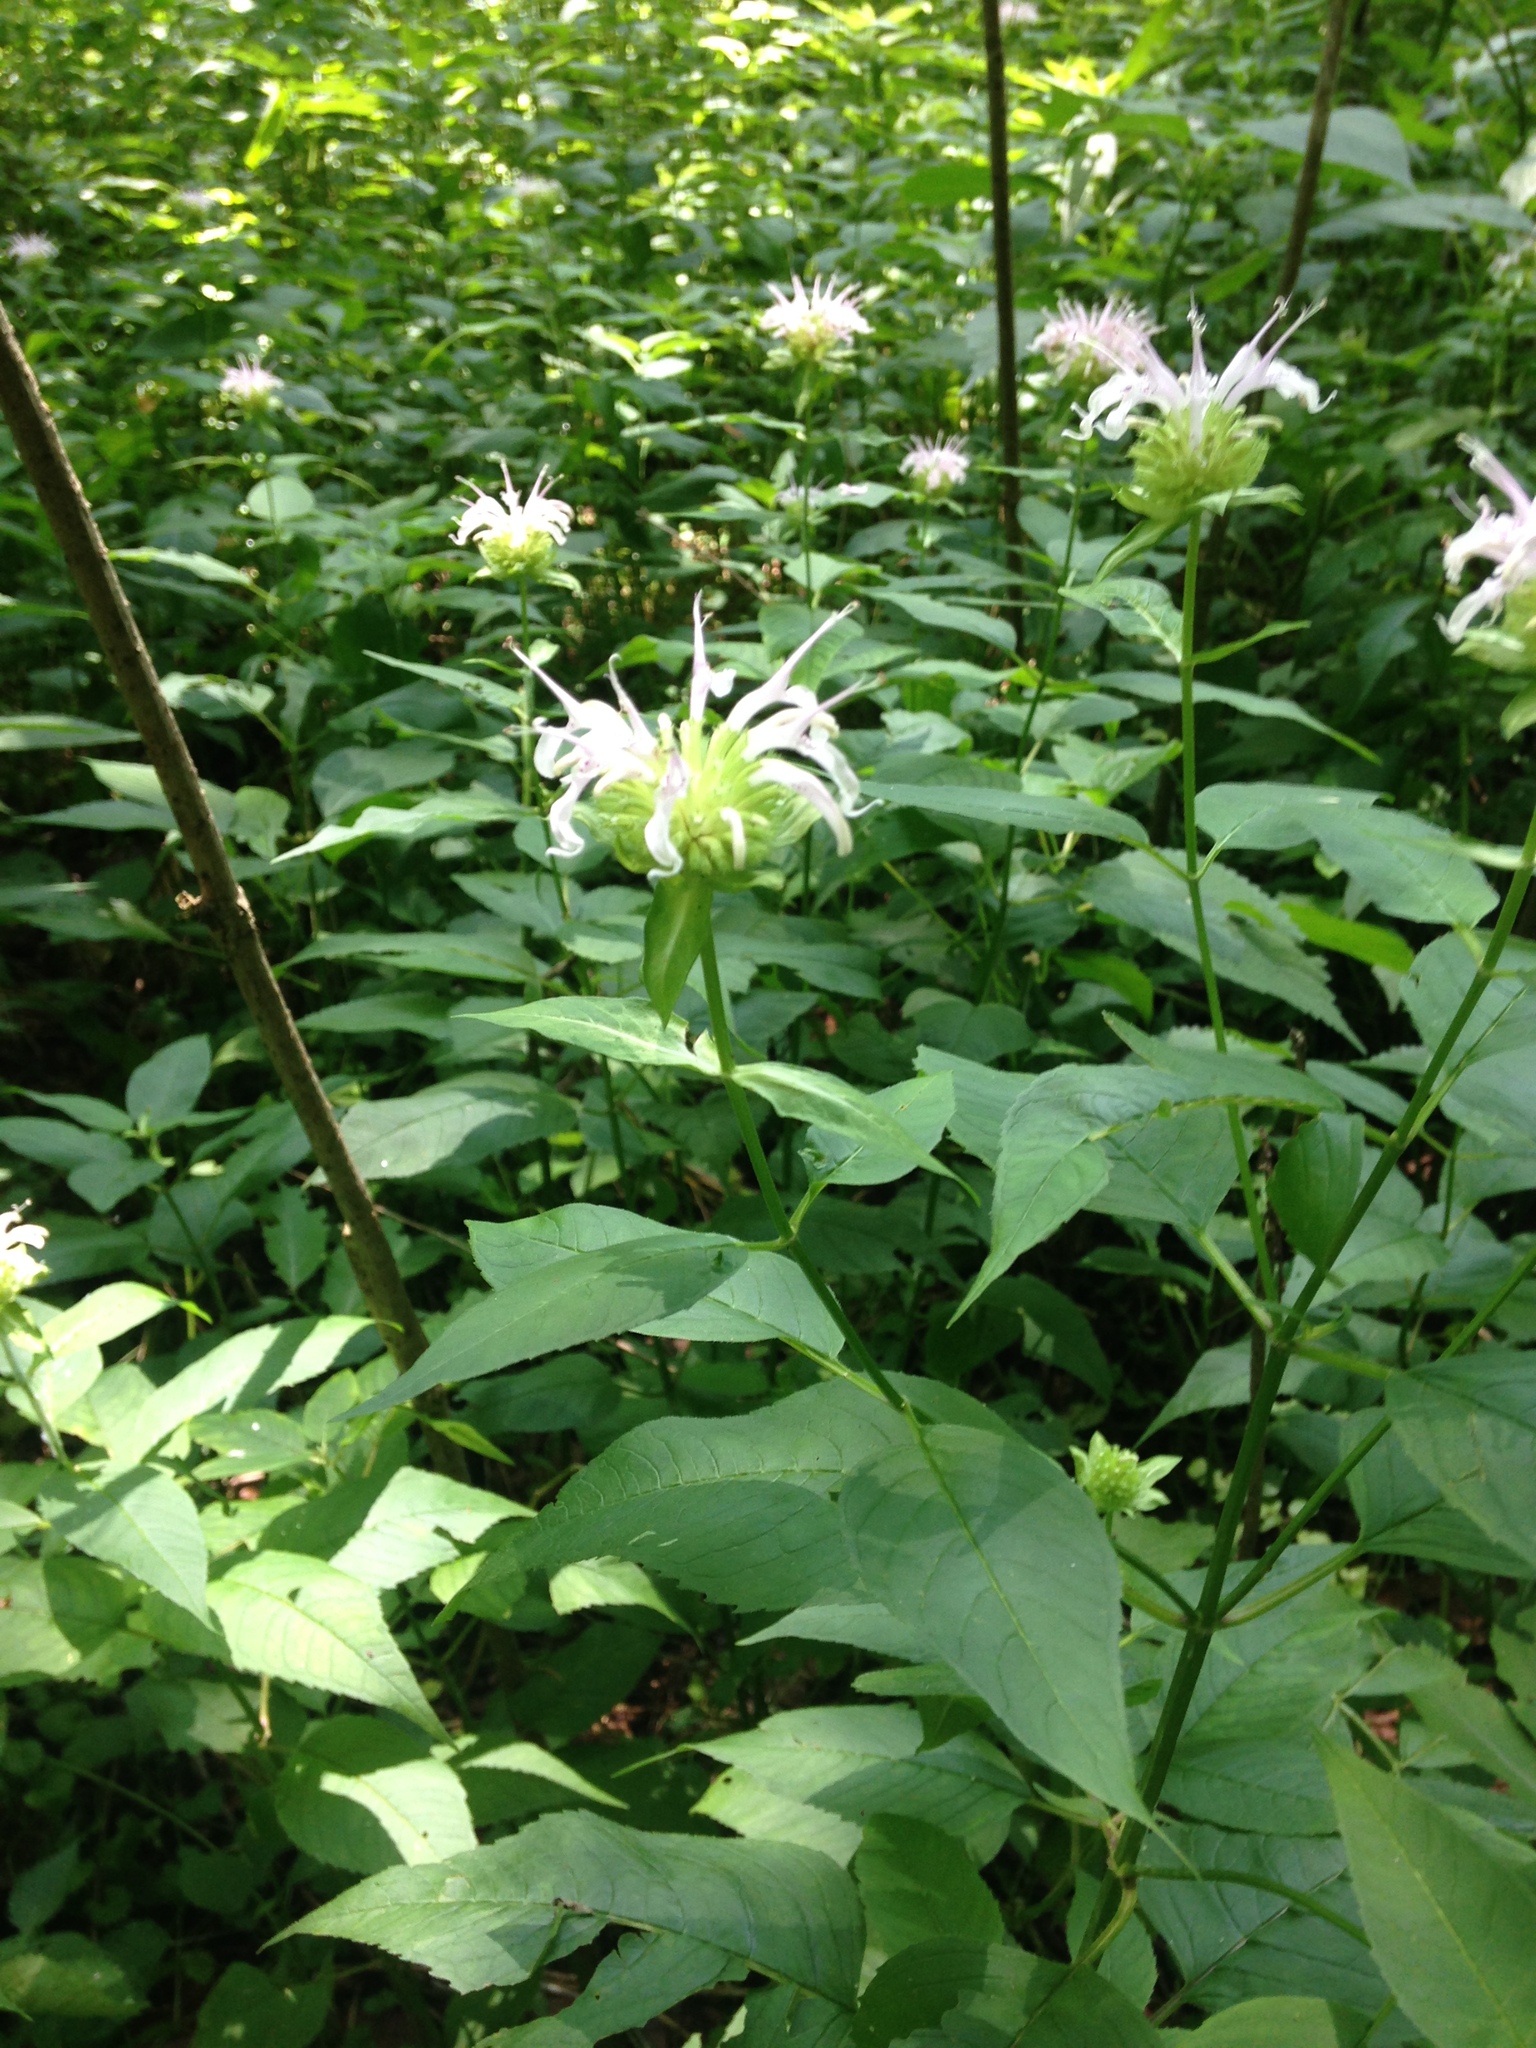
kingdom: Plantae
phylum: Tracheophyta
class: Magnoliopsida
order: Lamiales
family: Lamiaceae
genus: Monarda
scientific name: Monarda clinopodia
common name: Basil beebalm
